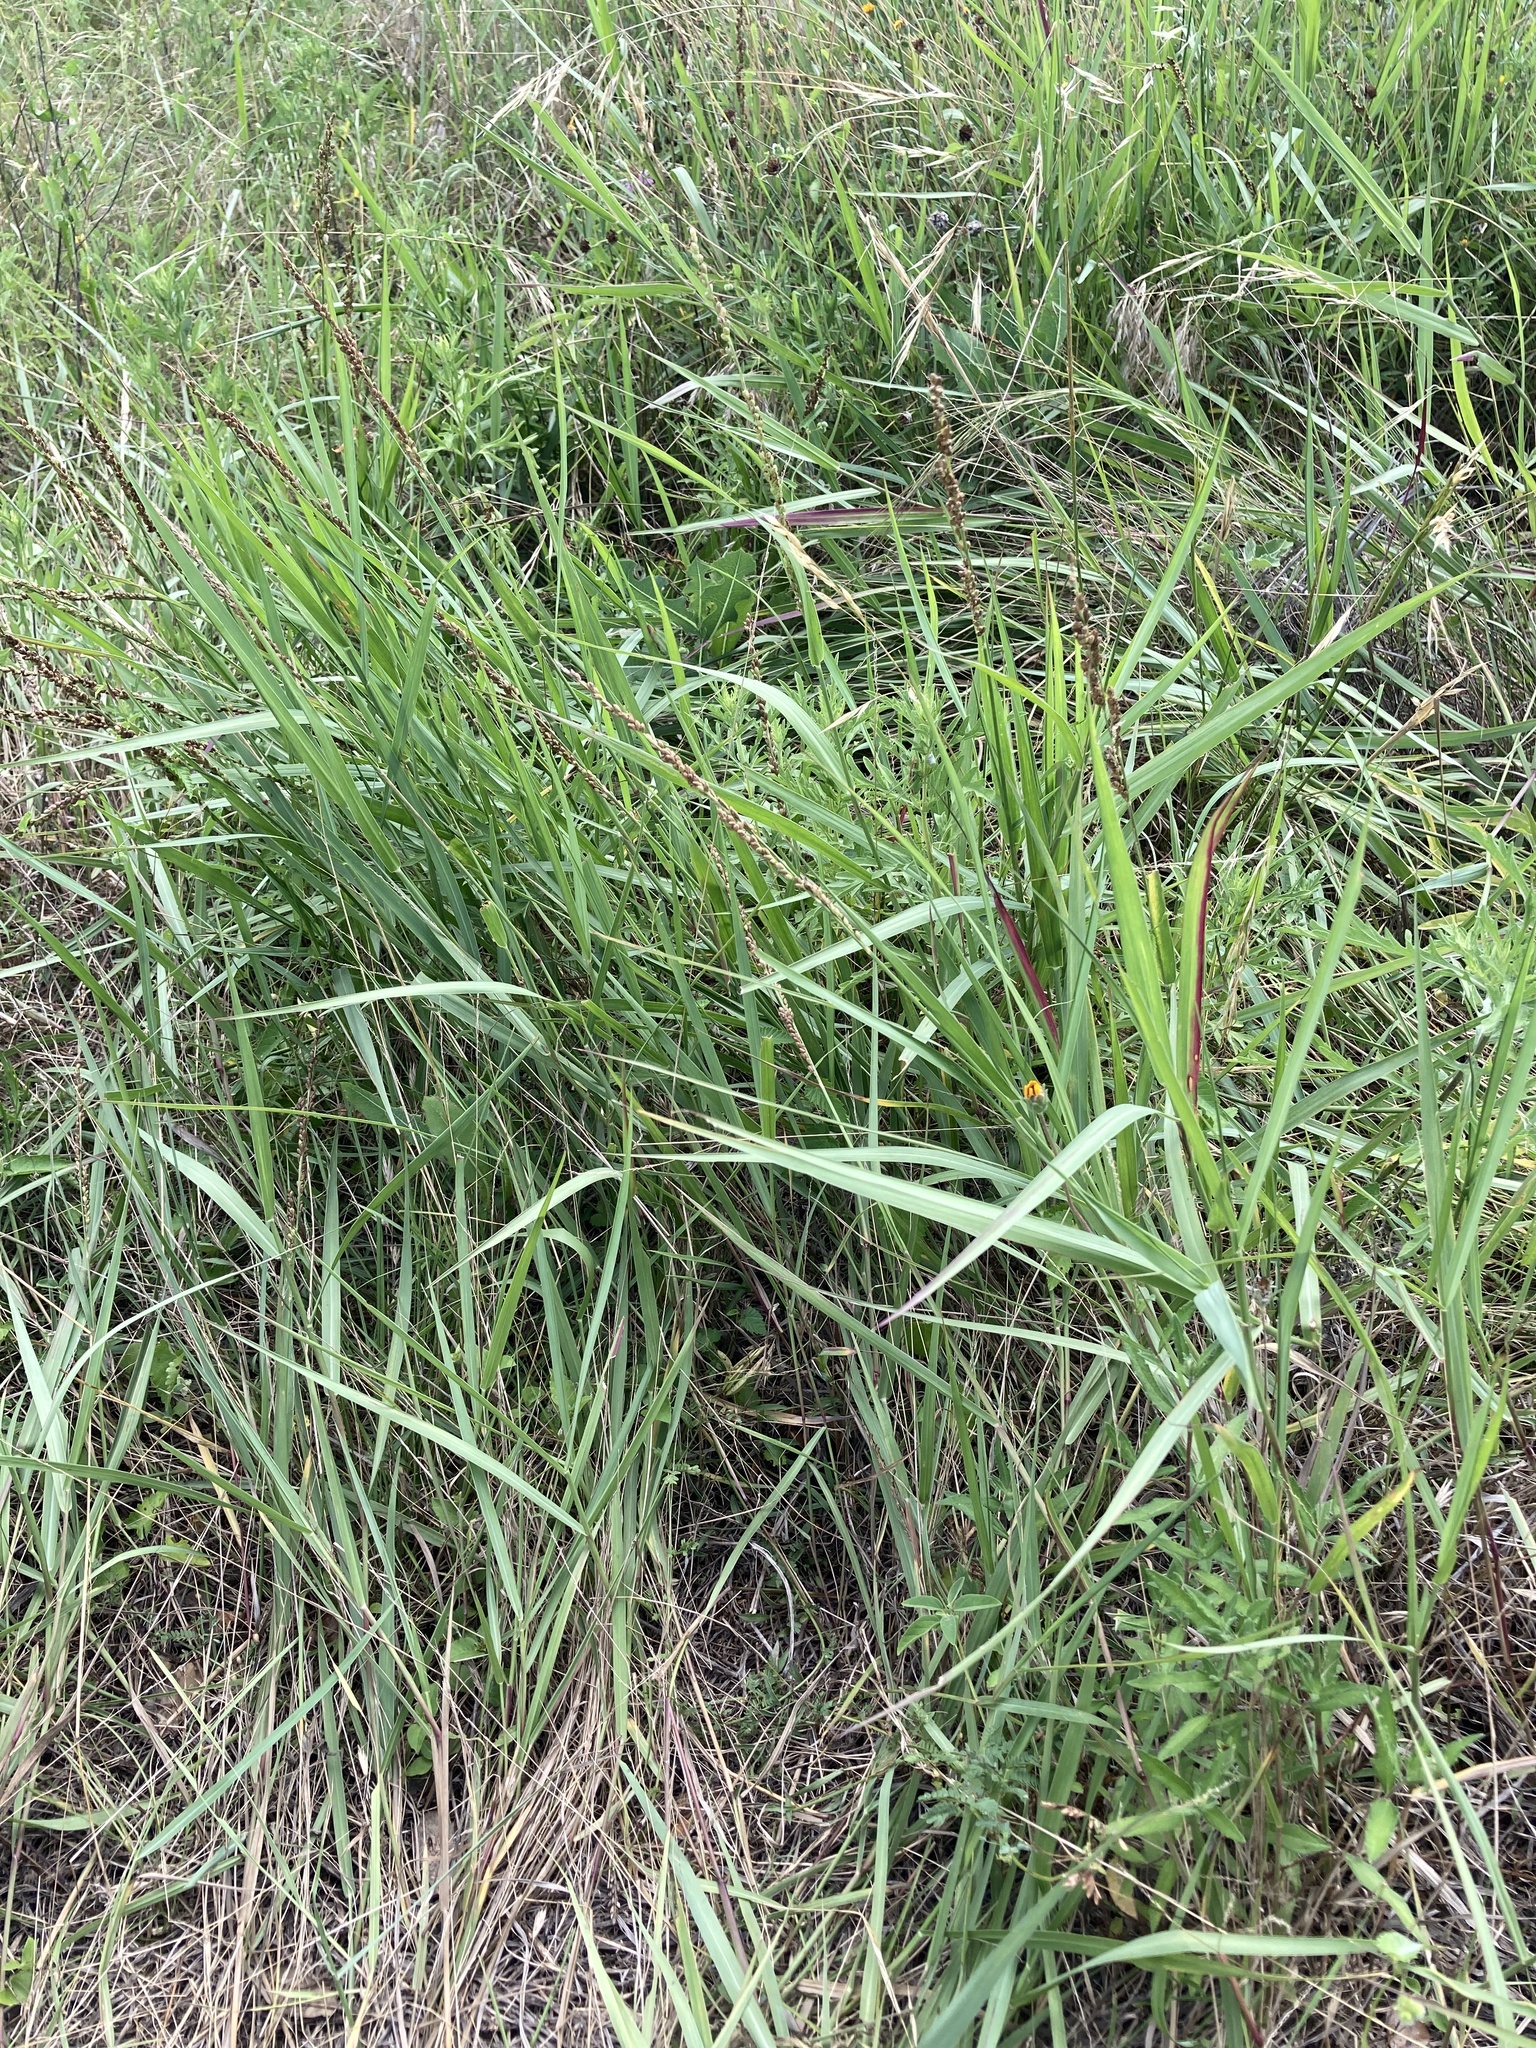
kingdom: Plantae
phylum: Tracheophyta
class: Liliopsida
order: Poales
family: Poaceae
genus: Hopia
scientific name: Hopia obtusa
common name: Vine-mesquite
